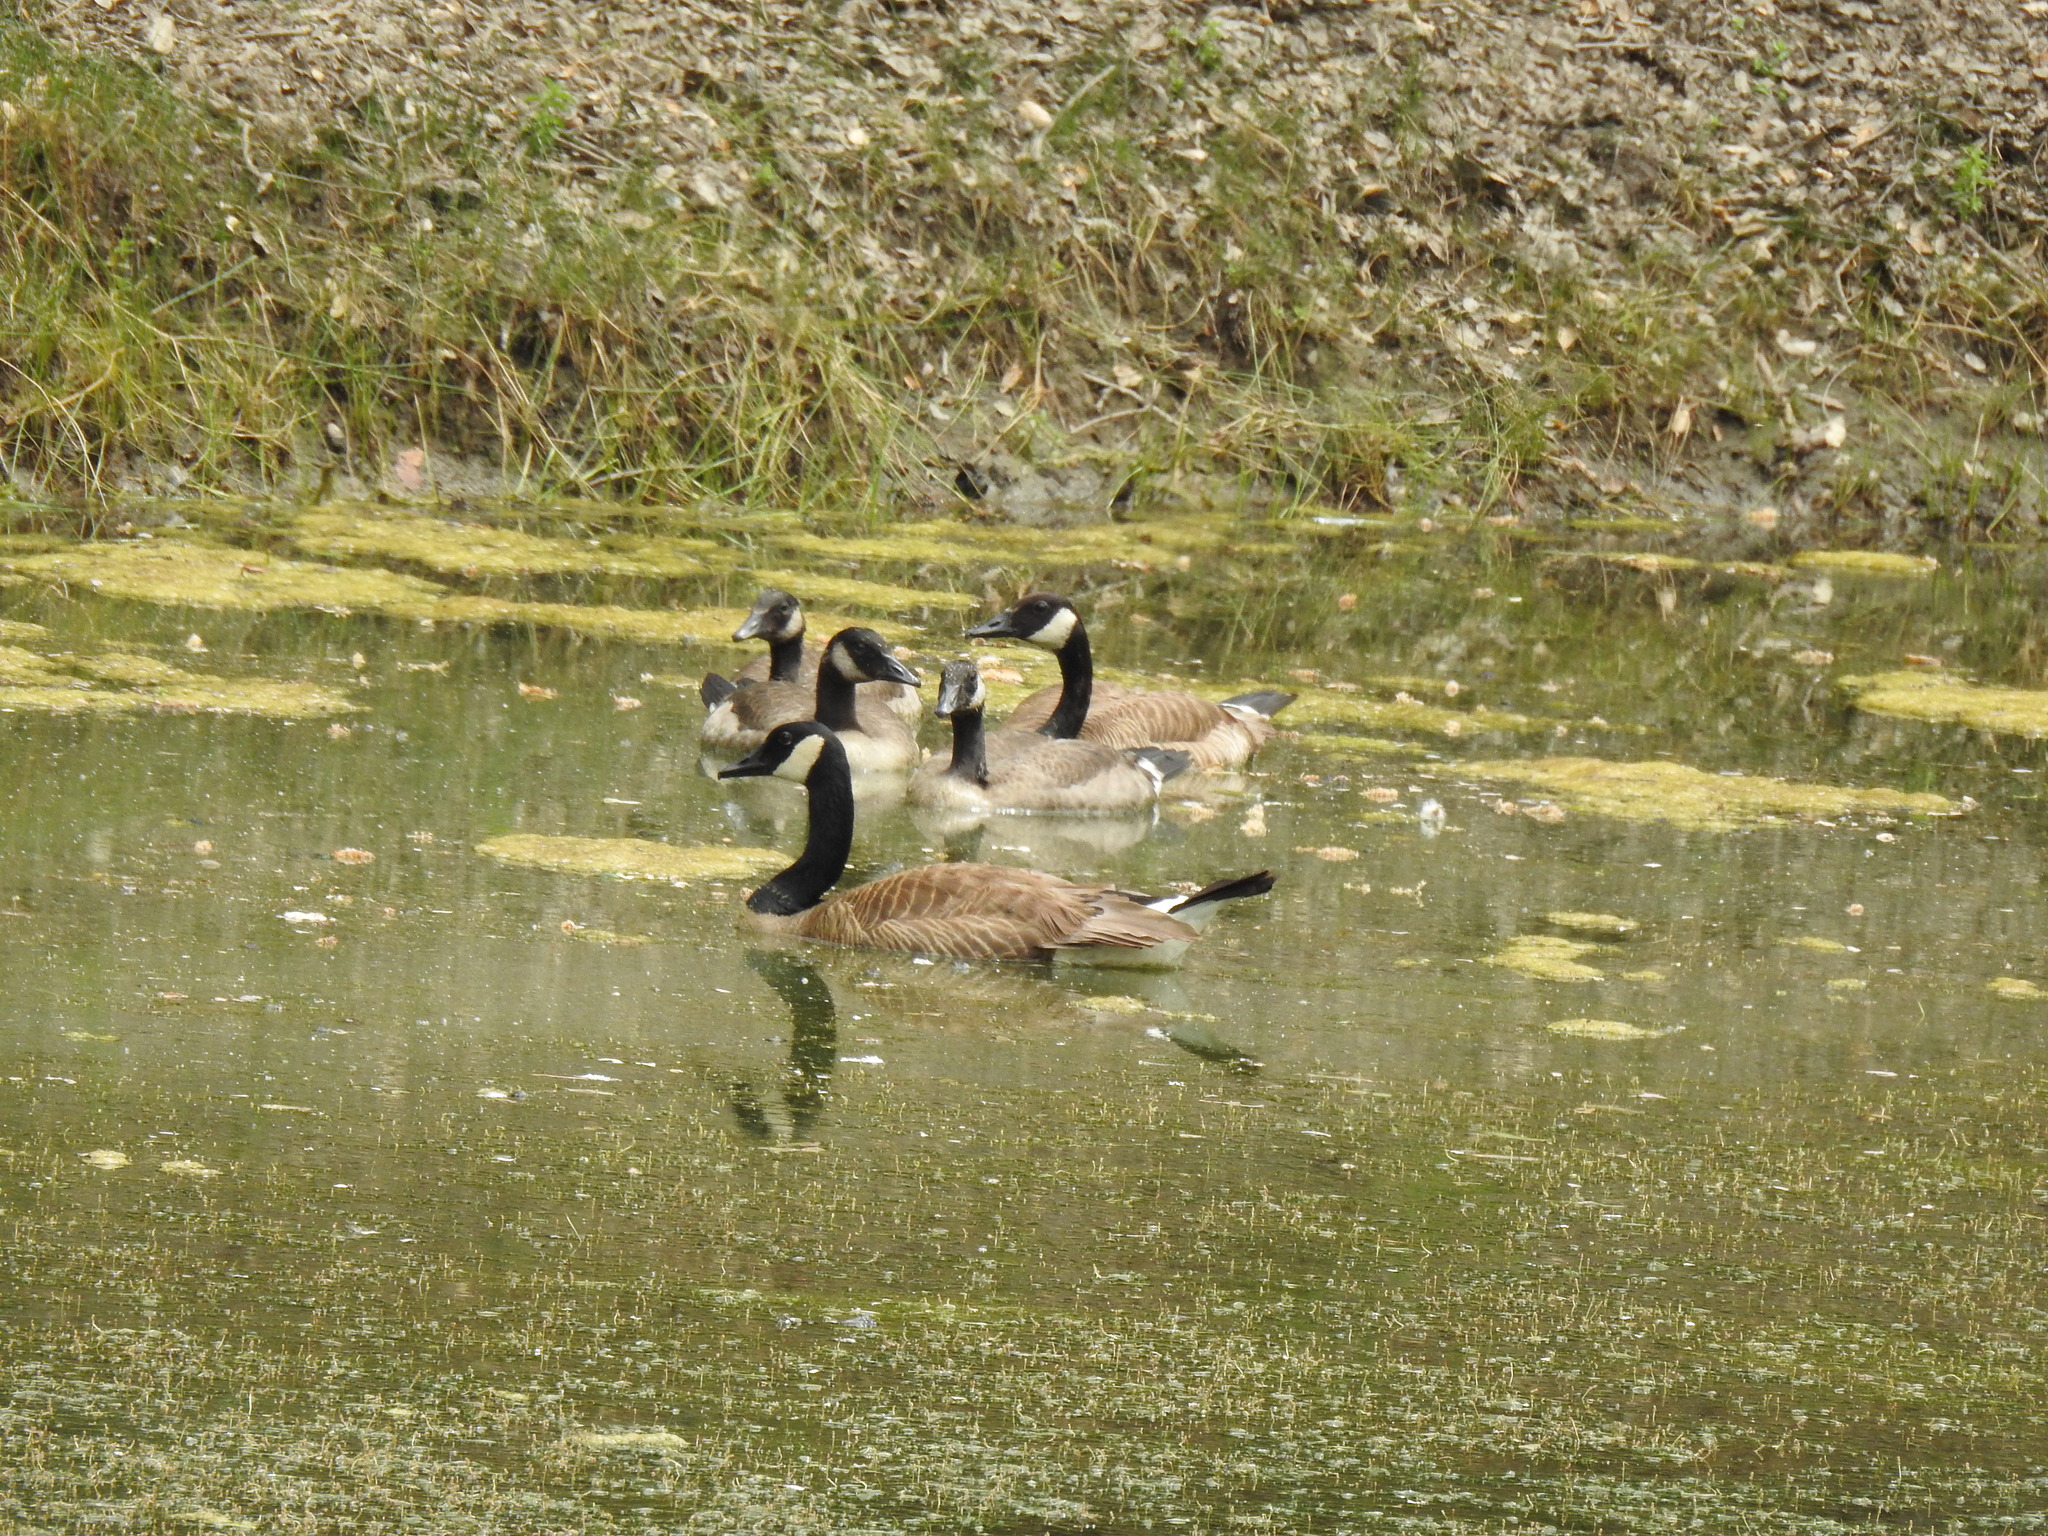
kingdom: Animalia
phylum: Chordata
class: Aves
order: Anseriformes
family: Anatidae
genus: Branta
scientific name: Branta canadensis
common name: Canada goose
